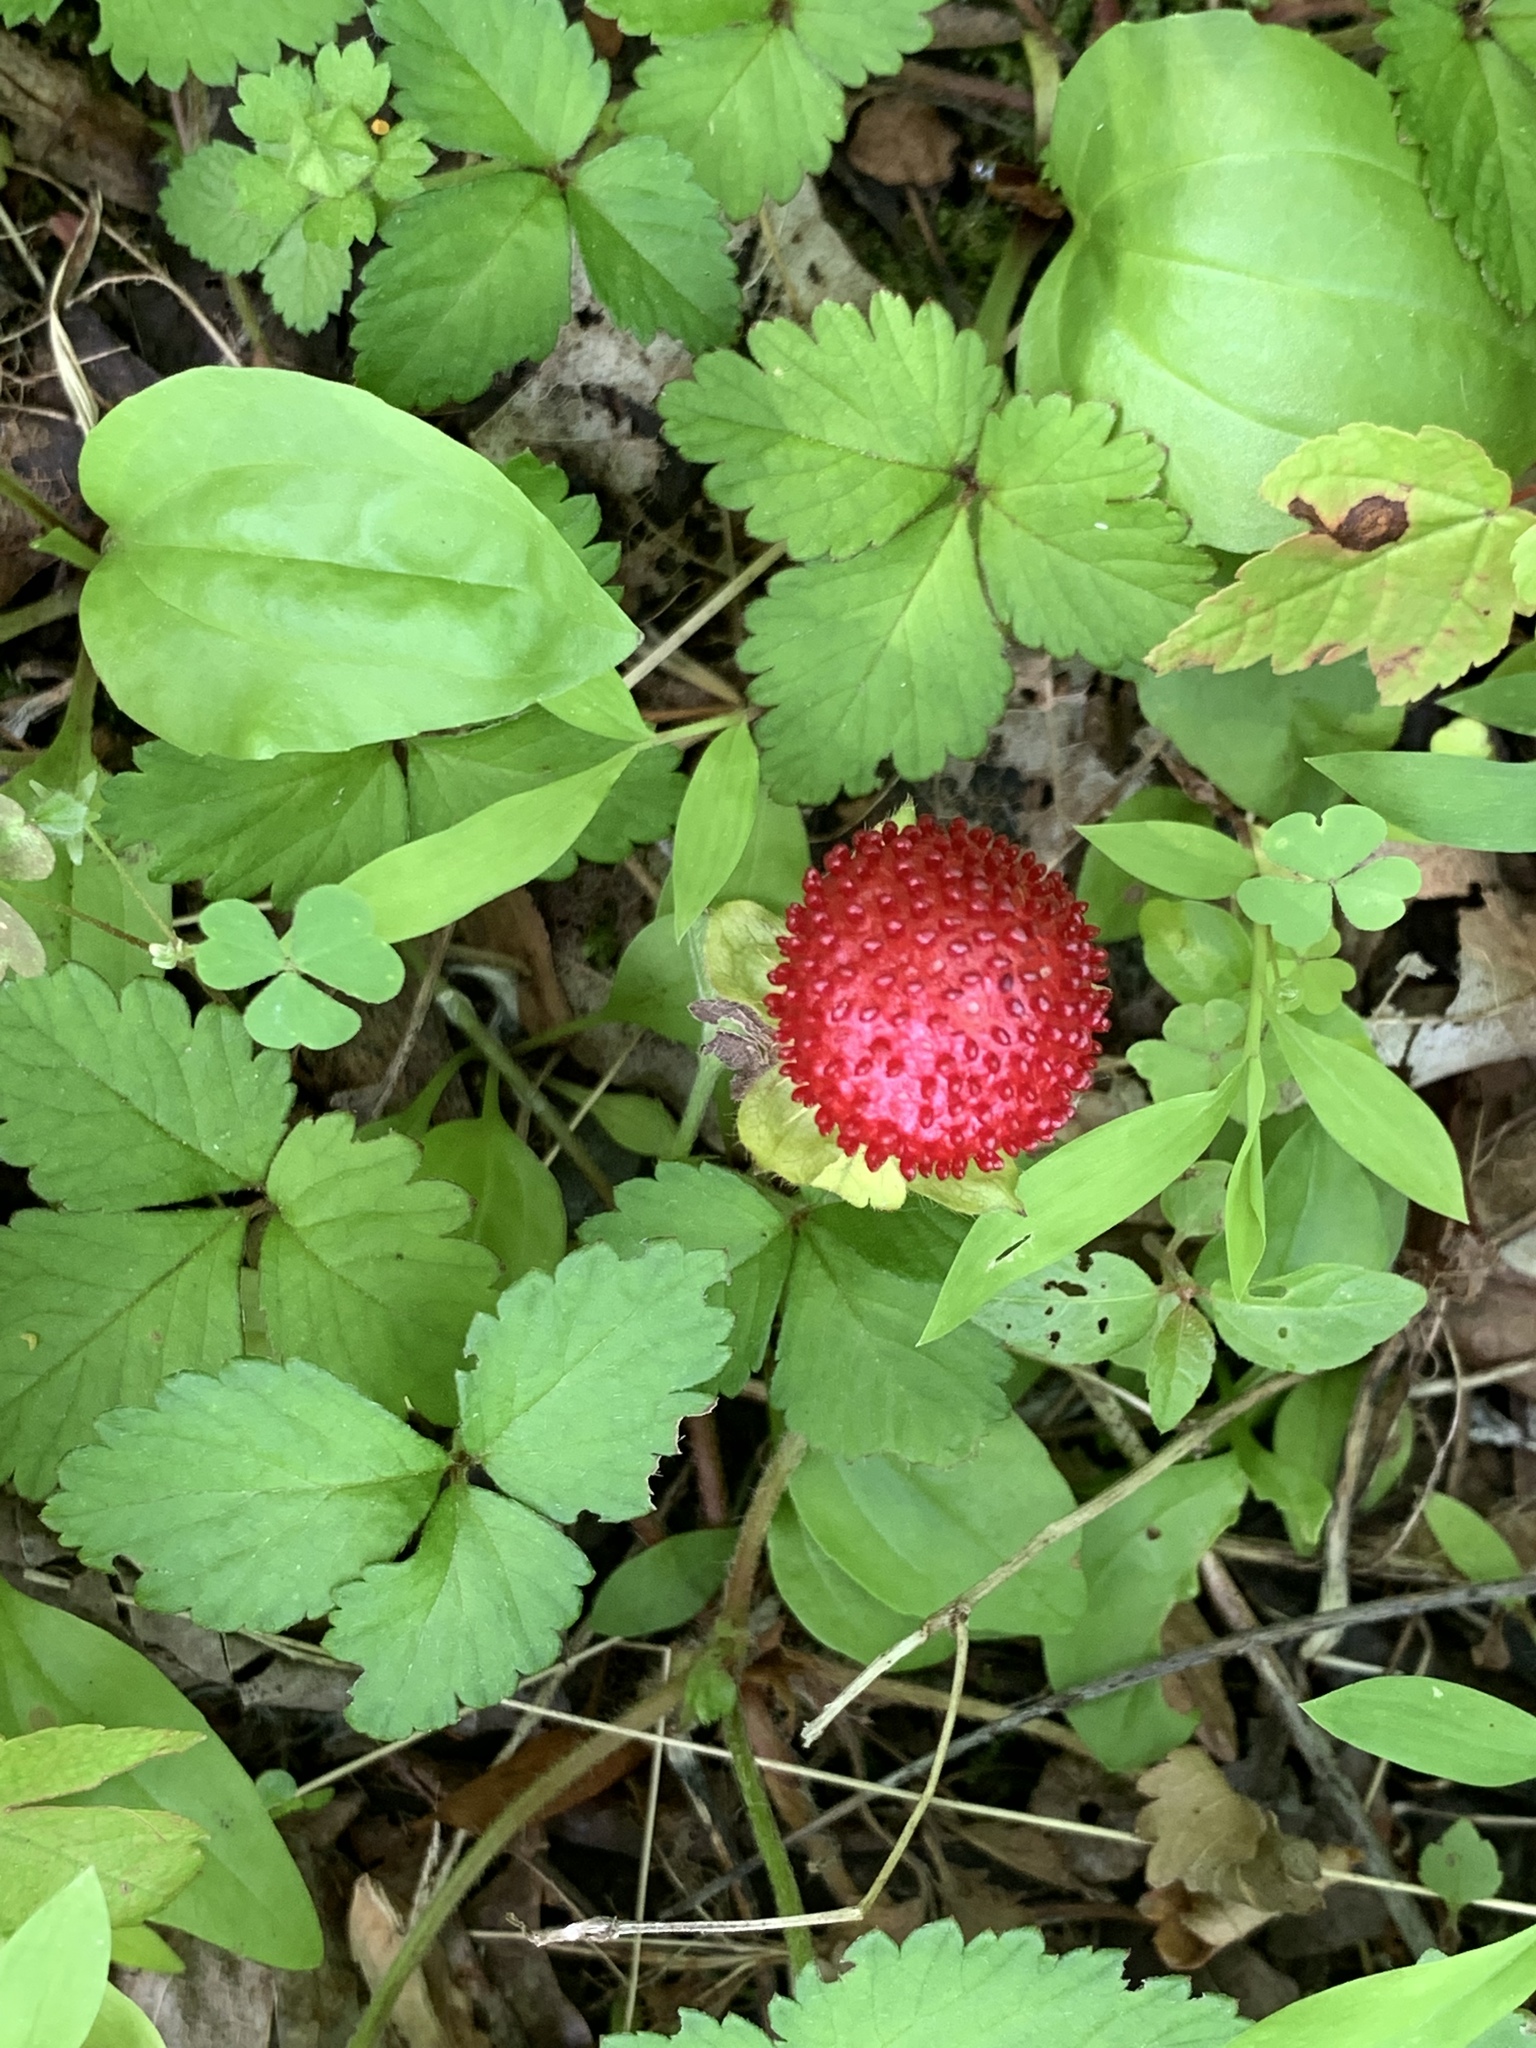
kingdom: Plantae
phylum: Tracheophyta
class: Magnoliopsida
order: Rosales
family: Rosaceae
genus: Potentilla
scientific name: Potentilla indica
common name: Yellow-flowered strawberry
